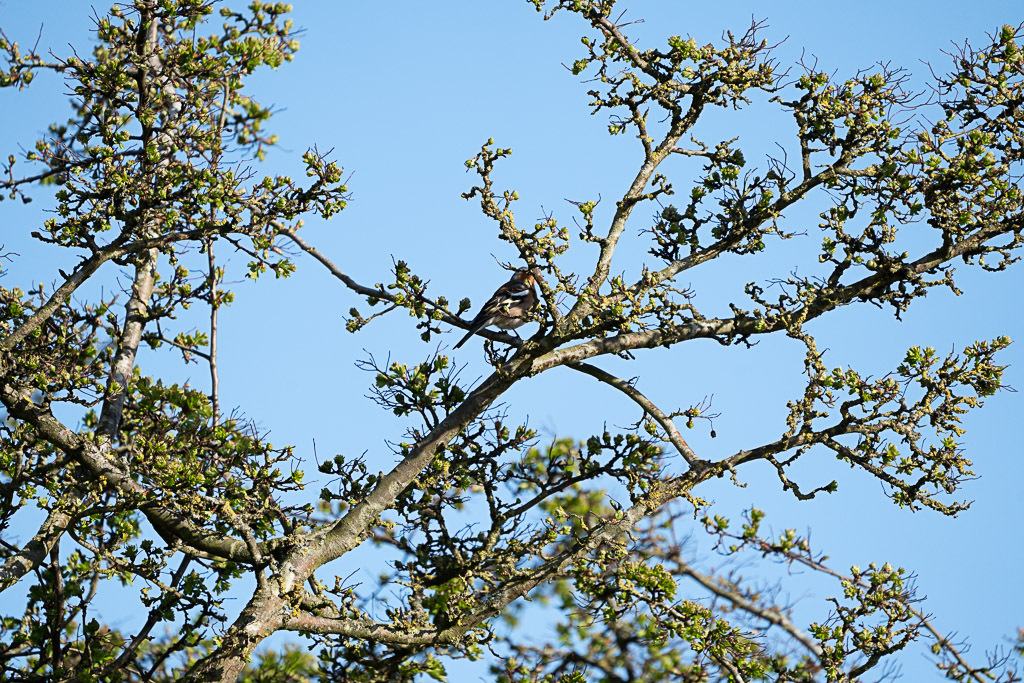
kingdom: Animalia
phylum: Chordata
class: Aves
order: Passeriformes
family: Fringillidae
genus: Fringilla
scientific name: Fringilla coelebs
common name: Common chaffinch
